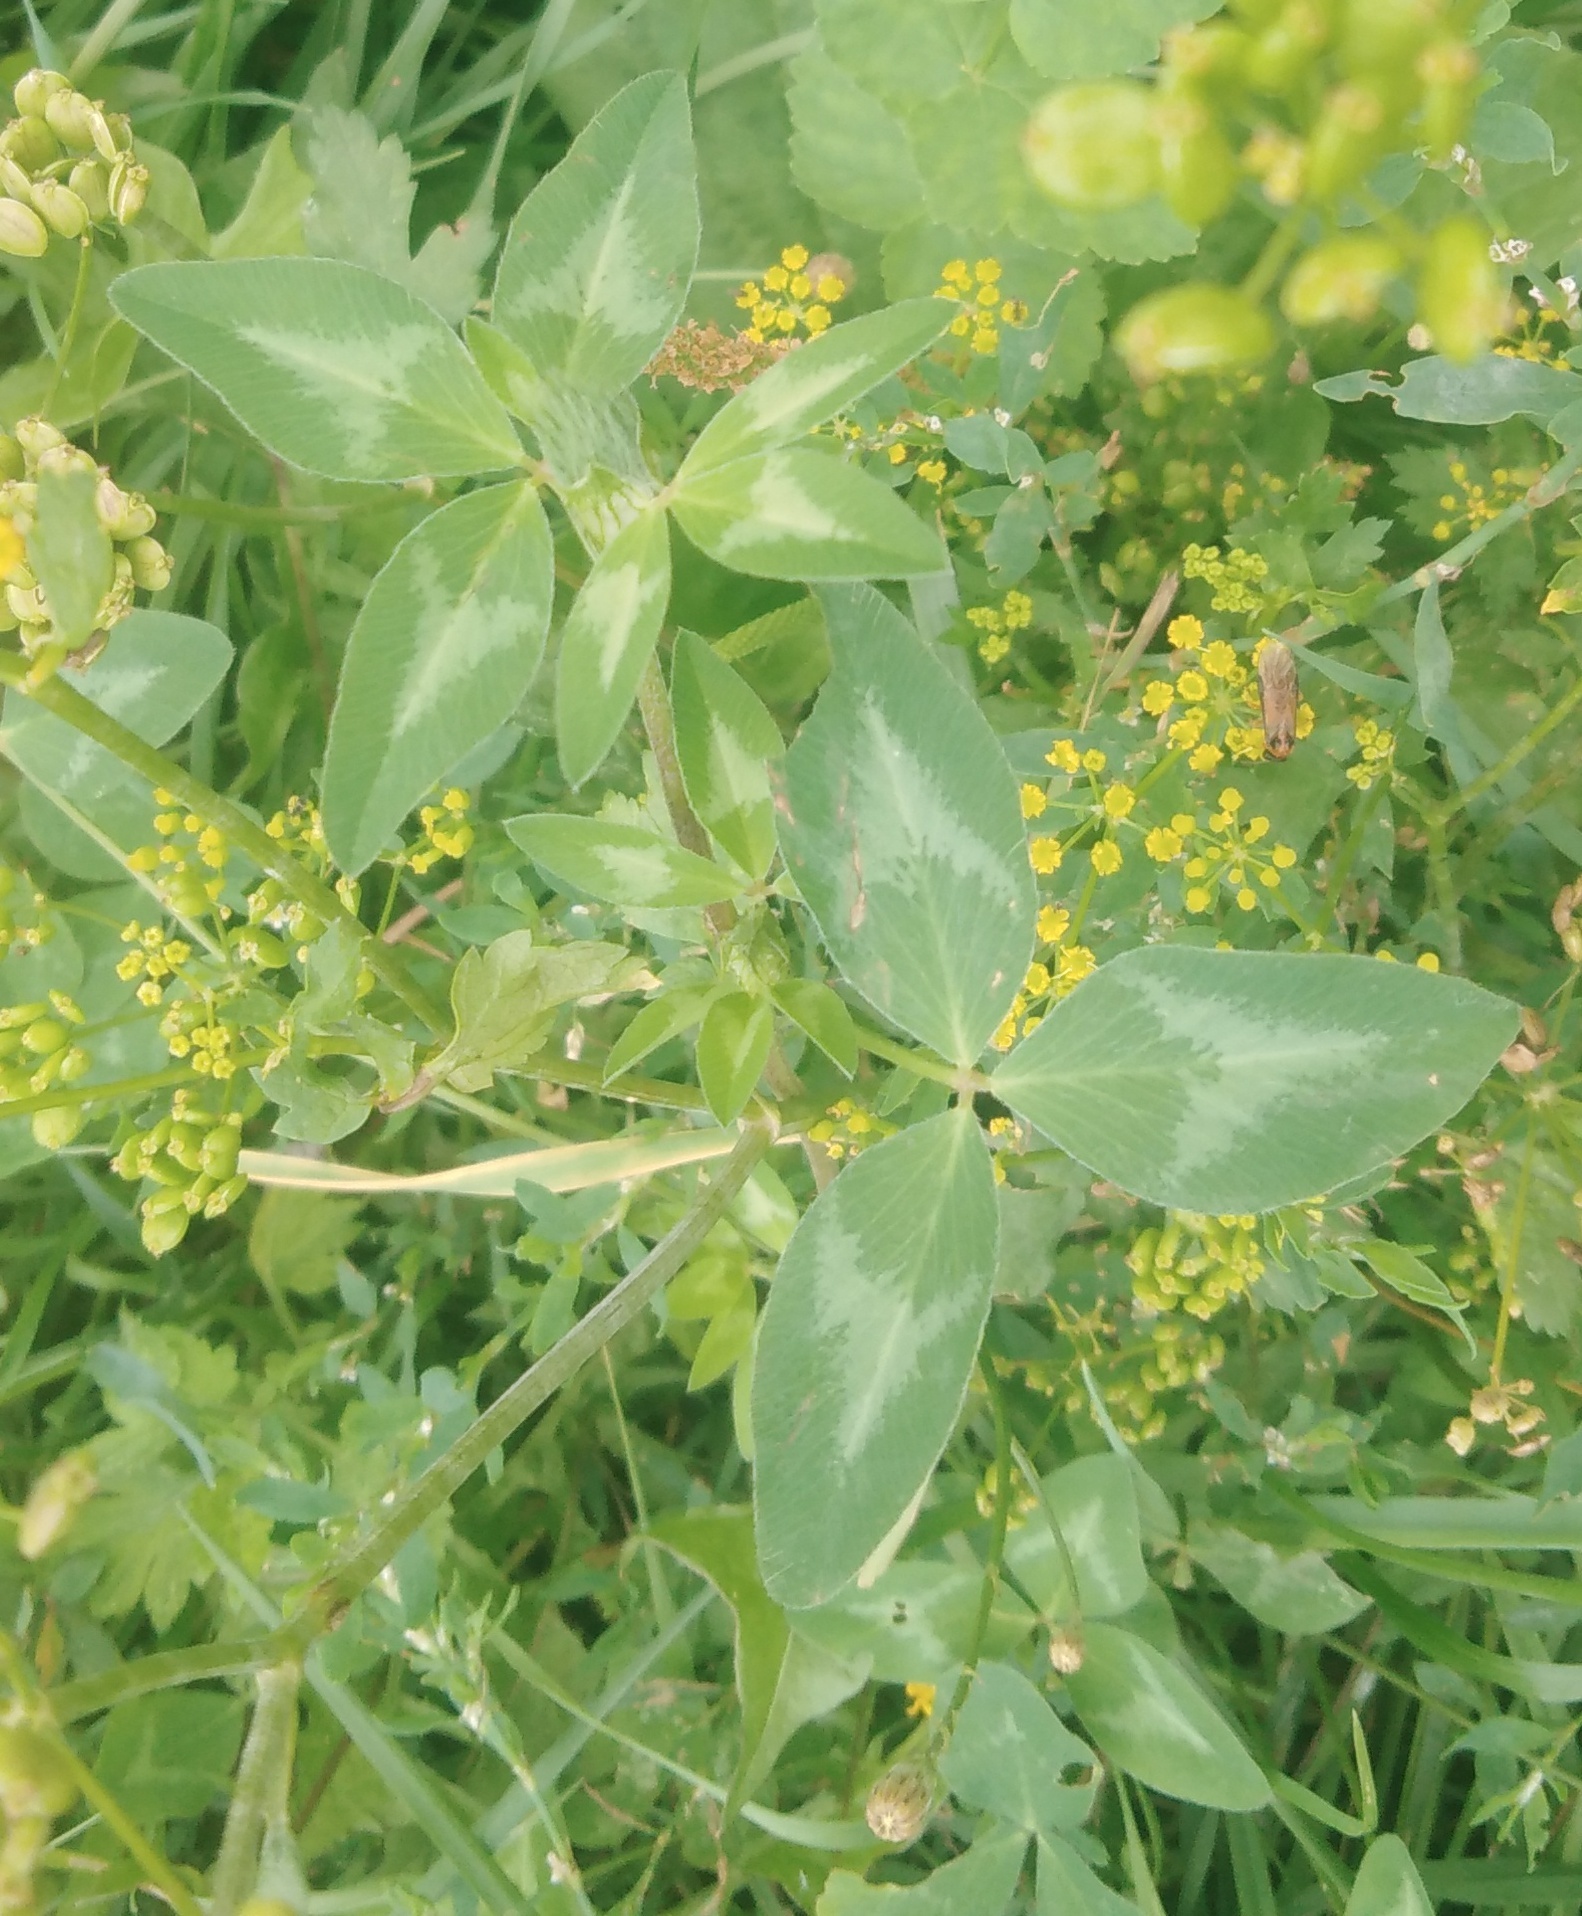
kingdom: Plantae
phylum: Tracheophyta
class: Magnoliopsida
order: Fabales
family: Fabaceae
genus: Trifolium
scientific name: Trifolium pratense
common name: Red clover
